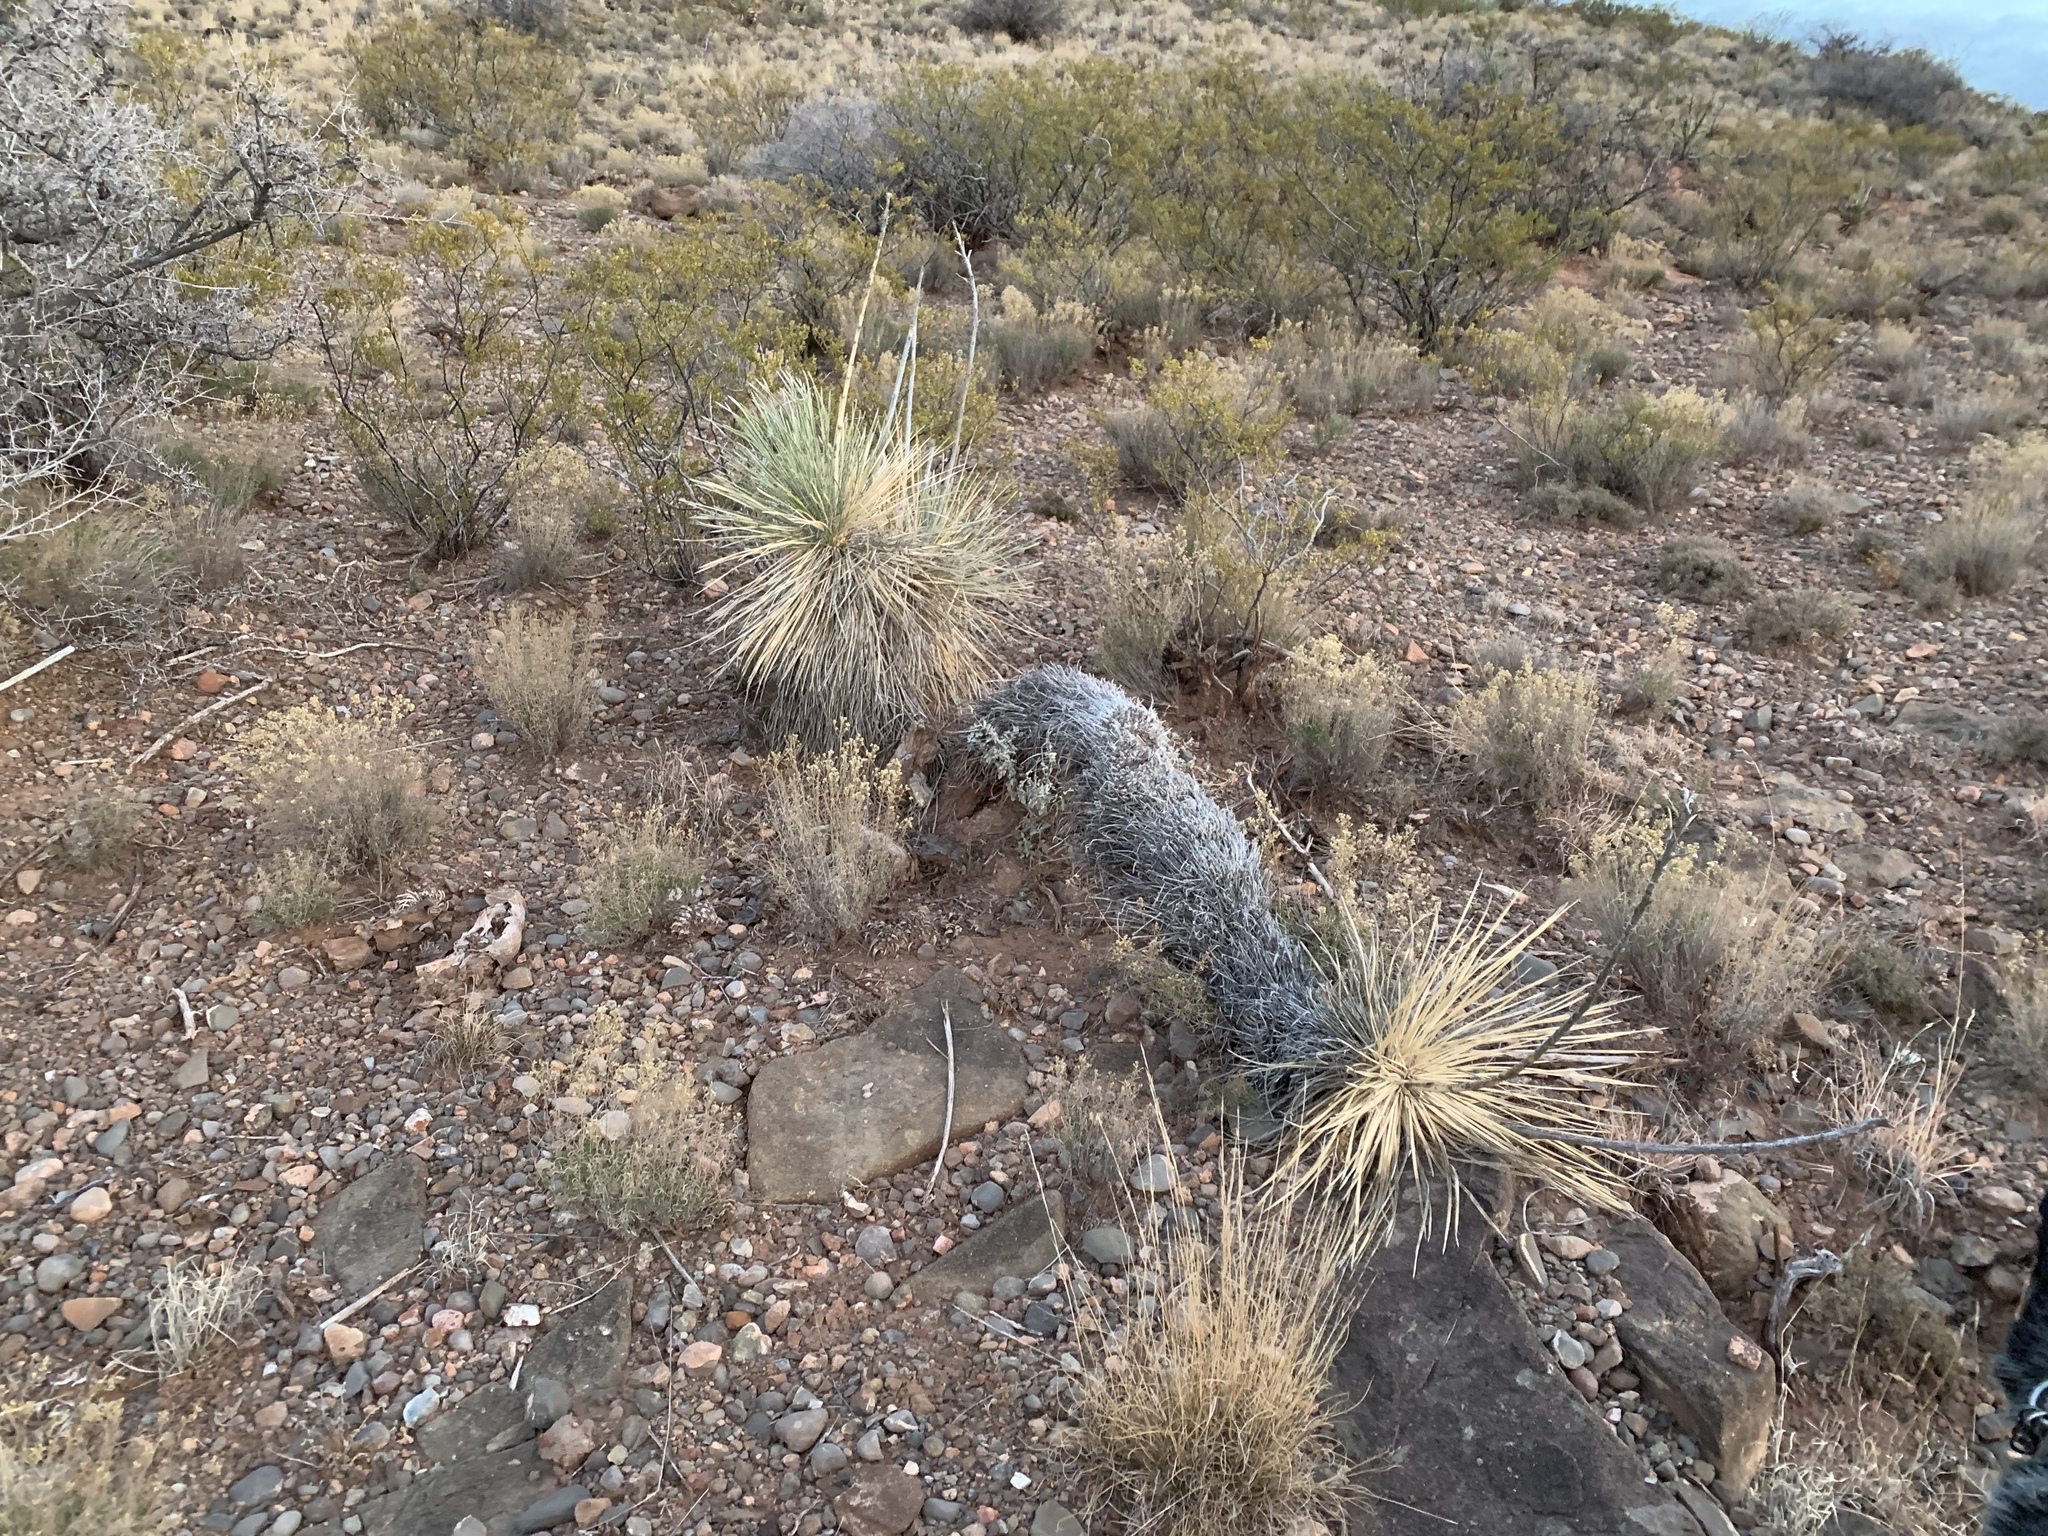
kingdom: Plantae
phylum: Tracheophyta
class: Liliopsida
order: Asparagales
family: Asparagaceae
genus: Yucca
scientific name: Yucca elata
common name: Palmella
